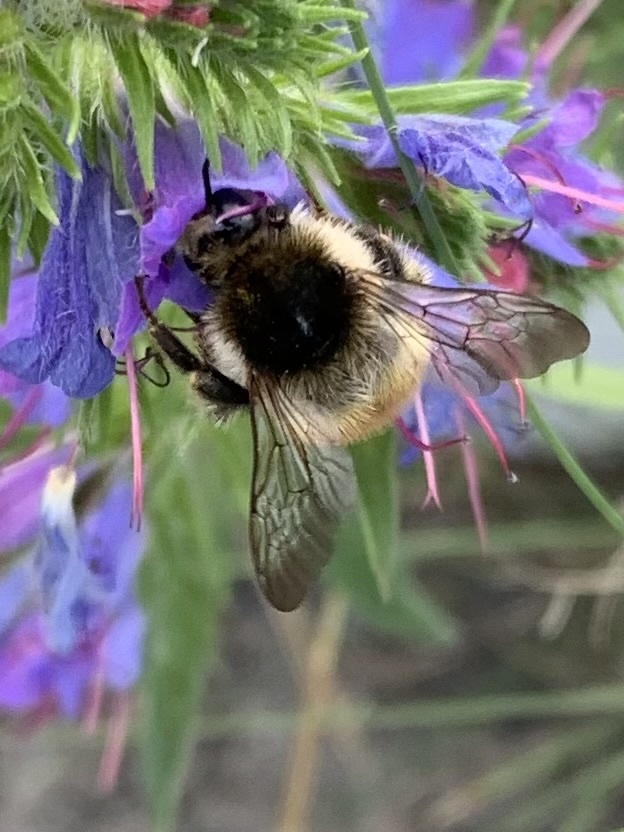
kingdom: Animalia
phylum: Arthropoda
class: Insecta
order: Hymenoptera
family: Apidae
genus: Bombus
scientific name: Bombus humilis
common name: Brown-banded carder-bee
